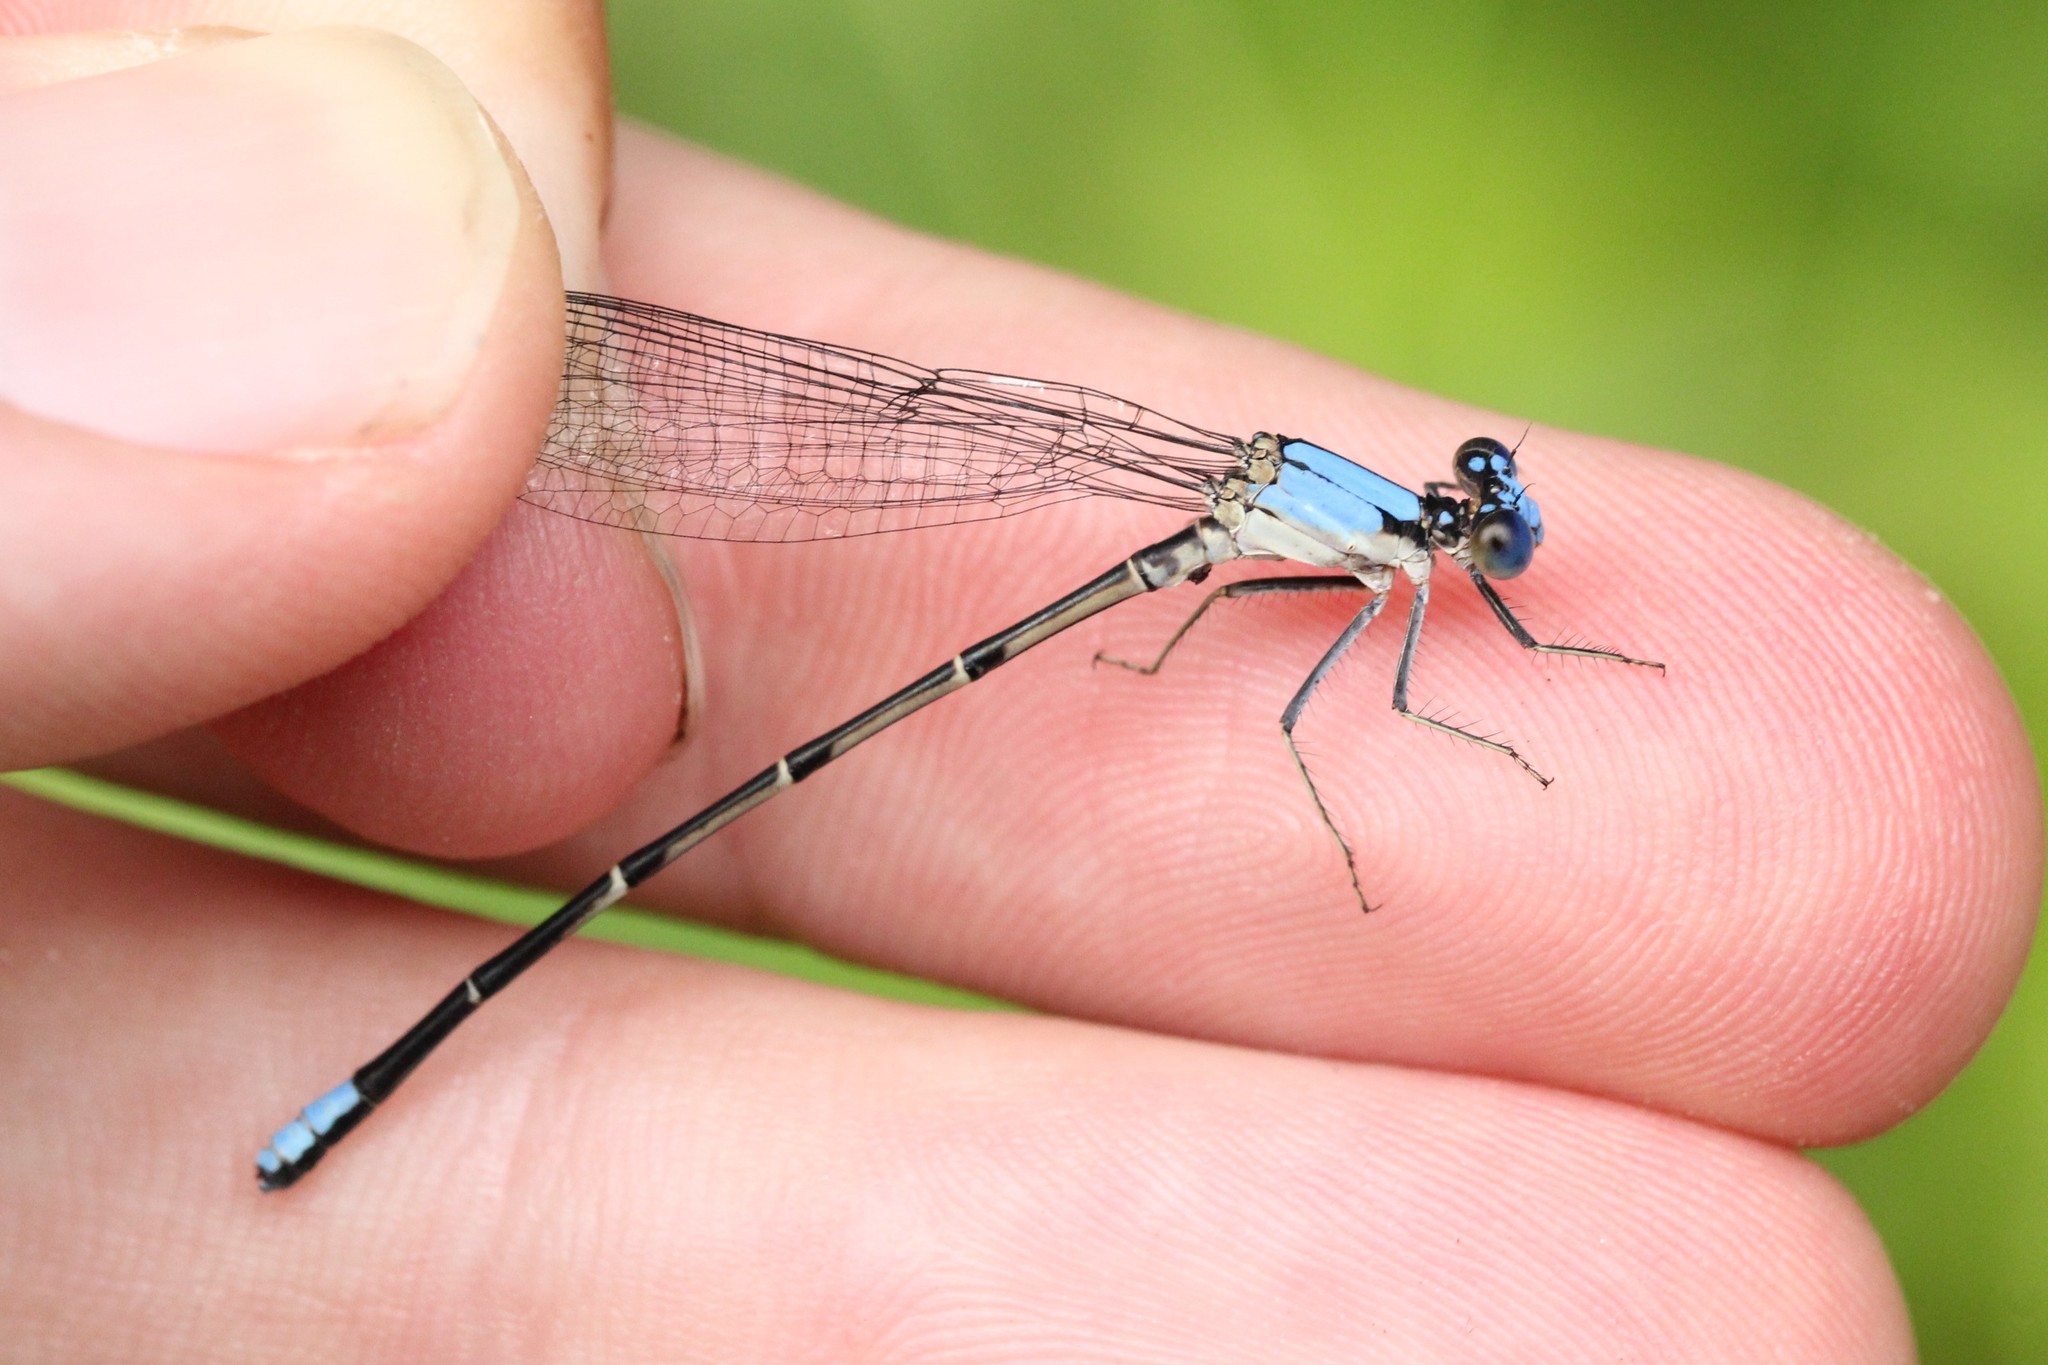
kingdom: Animalia
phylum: Arthropoda
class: Insecta
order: Odonata
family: Coenagrionidae
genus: Argia
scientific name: Argia apicalis
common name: Blue-fronted dancer
